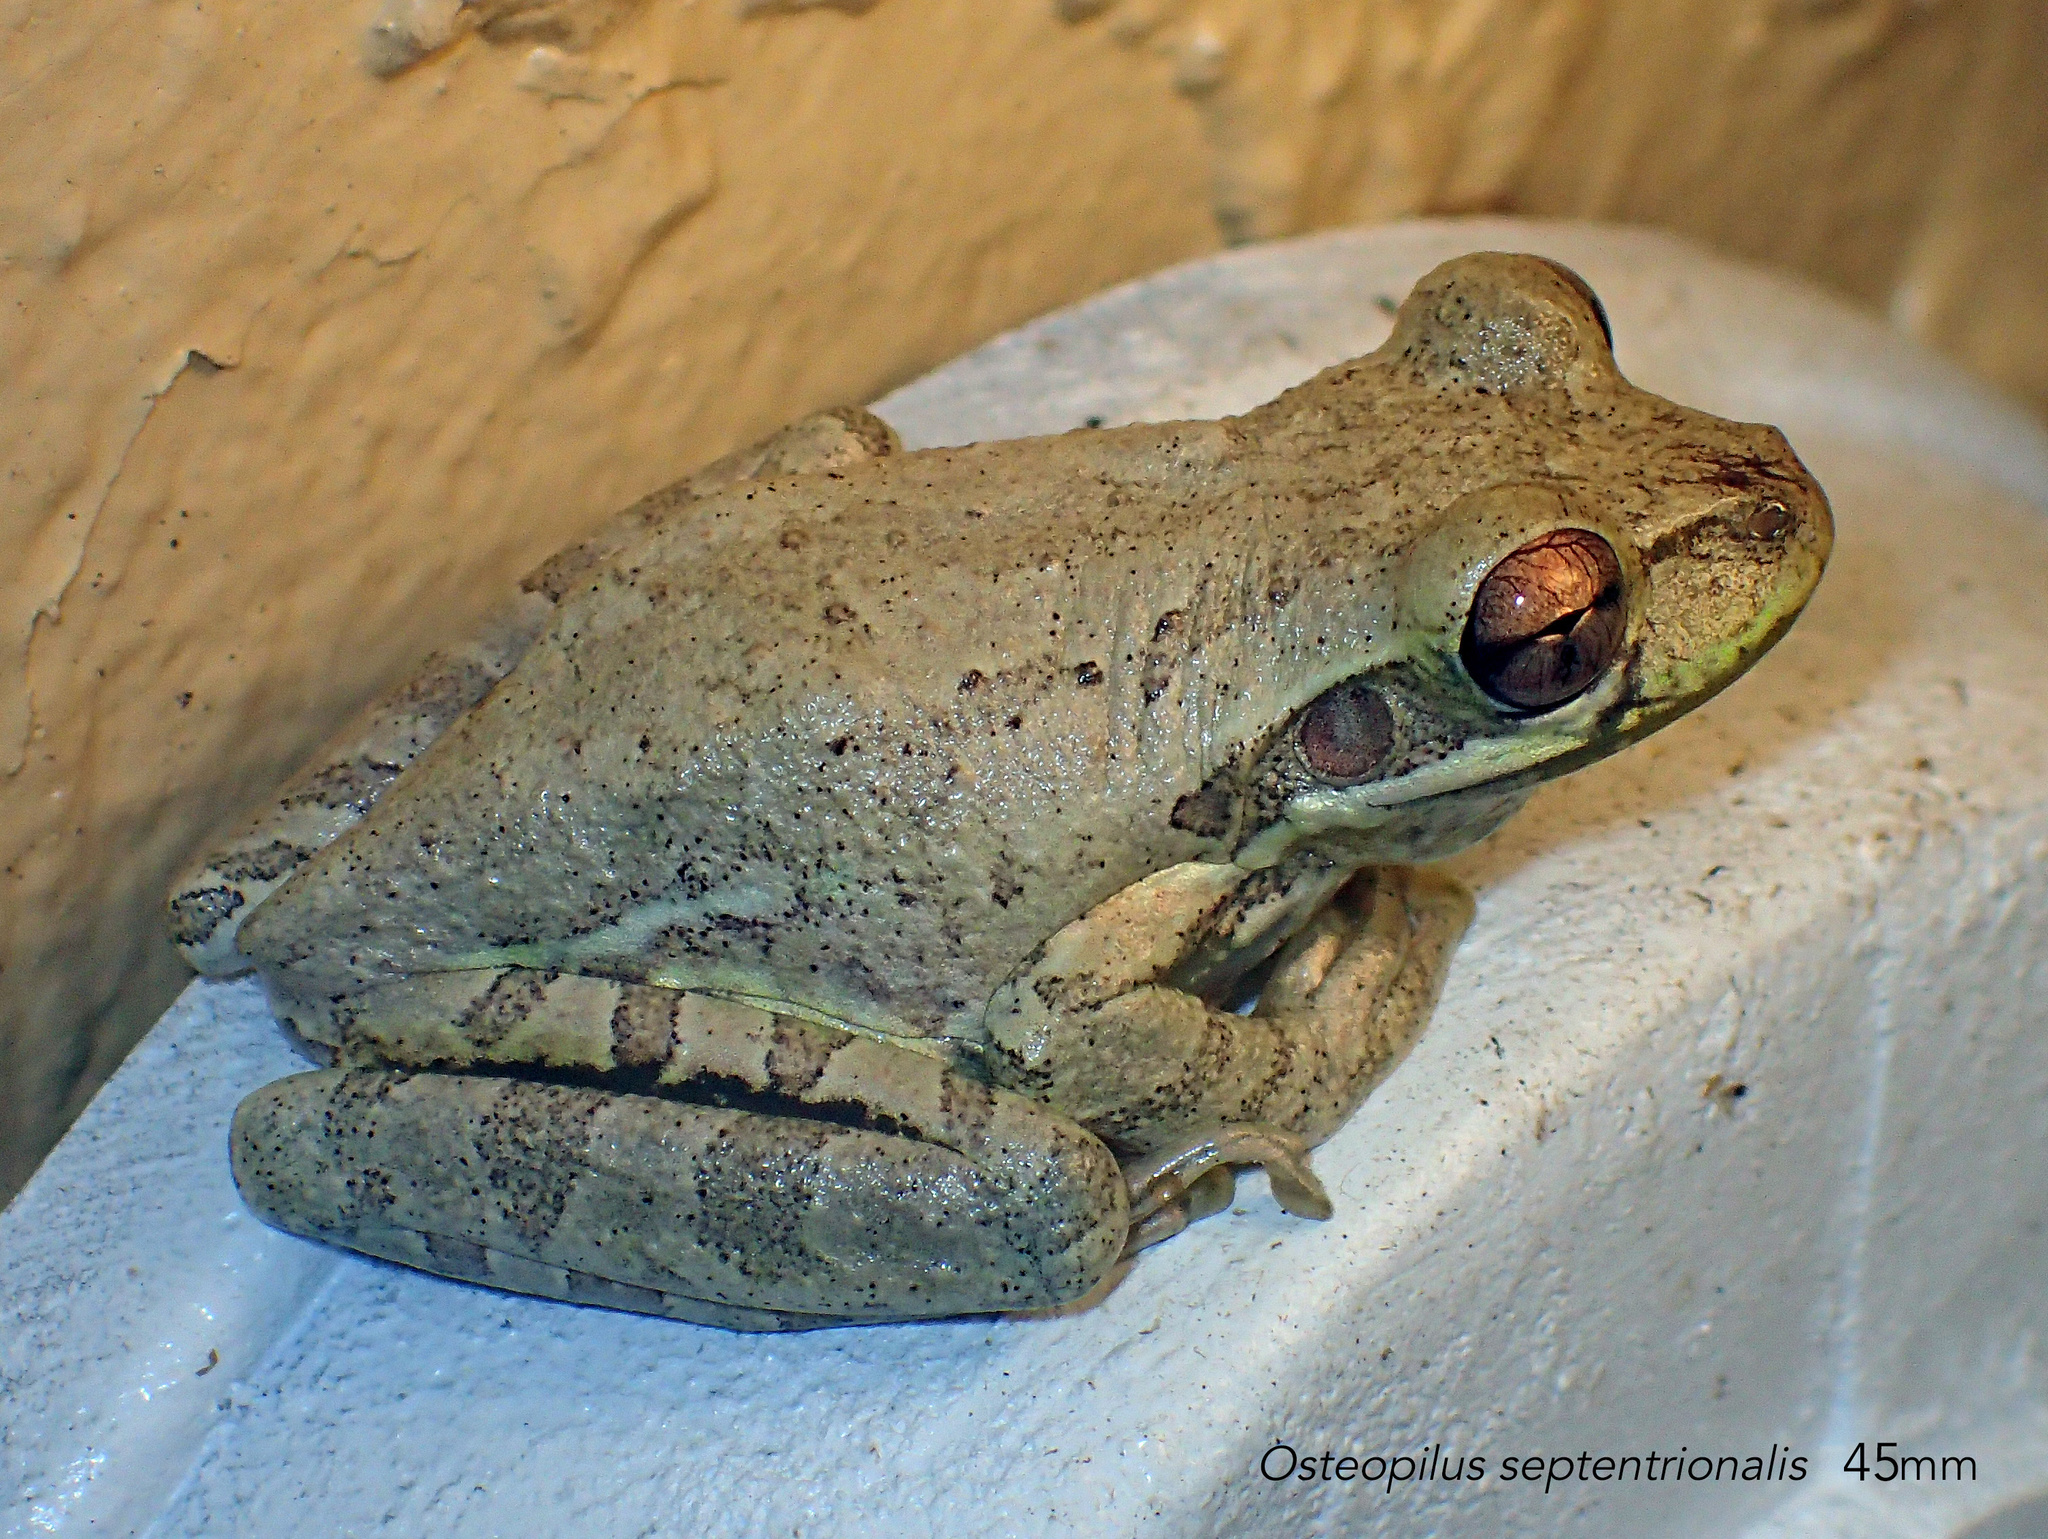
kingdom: Animalia
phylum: Chordata
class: Amphibia
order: Anura
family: Hylidae
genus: Osteopilus
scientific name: Osteopilus septentrionalis
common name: Cuban treefrog
